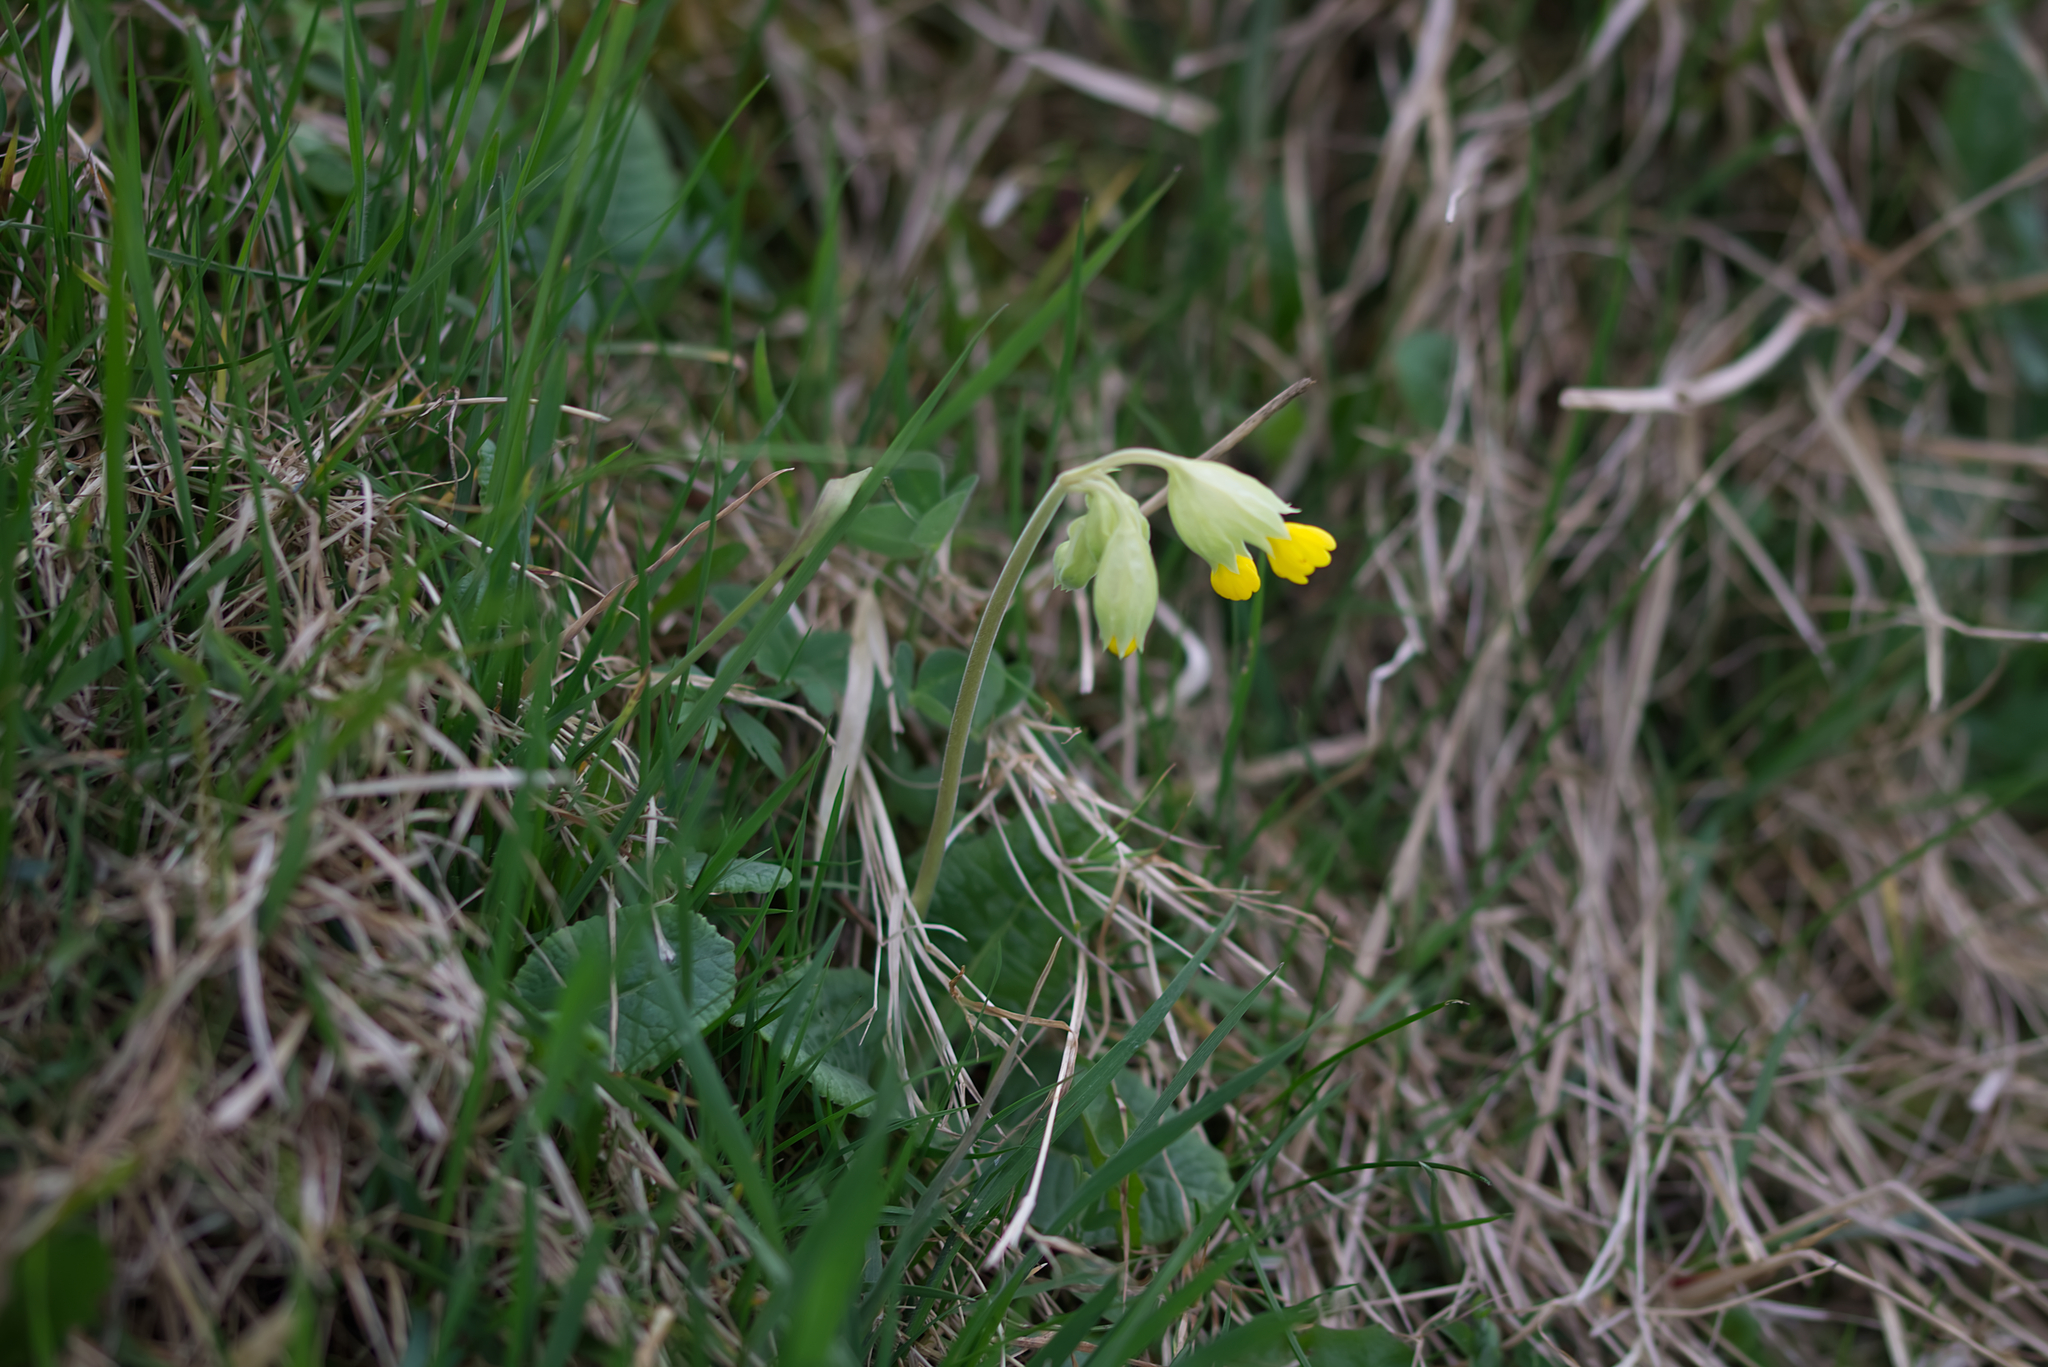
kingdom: Plantae
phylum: Tracheophyta
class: Magnoliopsida
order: Ericales
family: Primulaceae
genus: Primula
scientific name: Primula veris
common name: Cowslip
